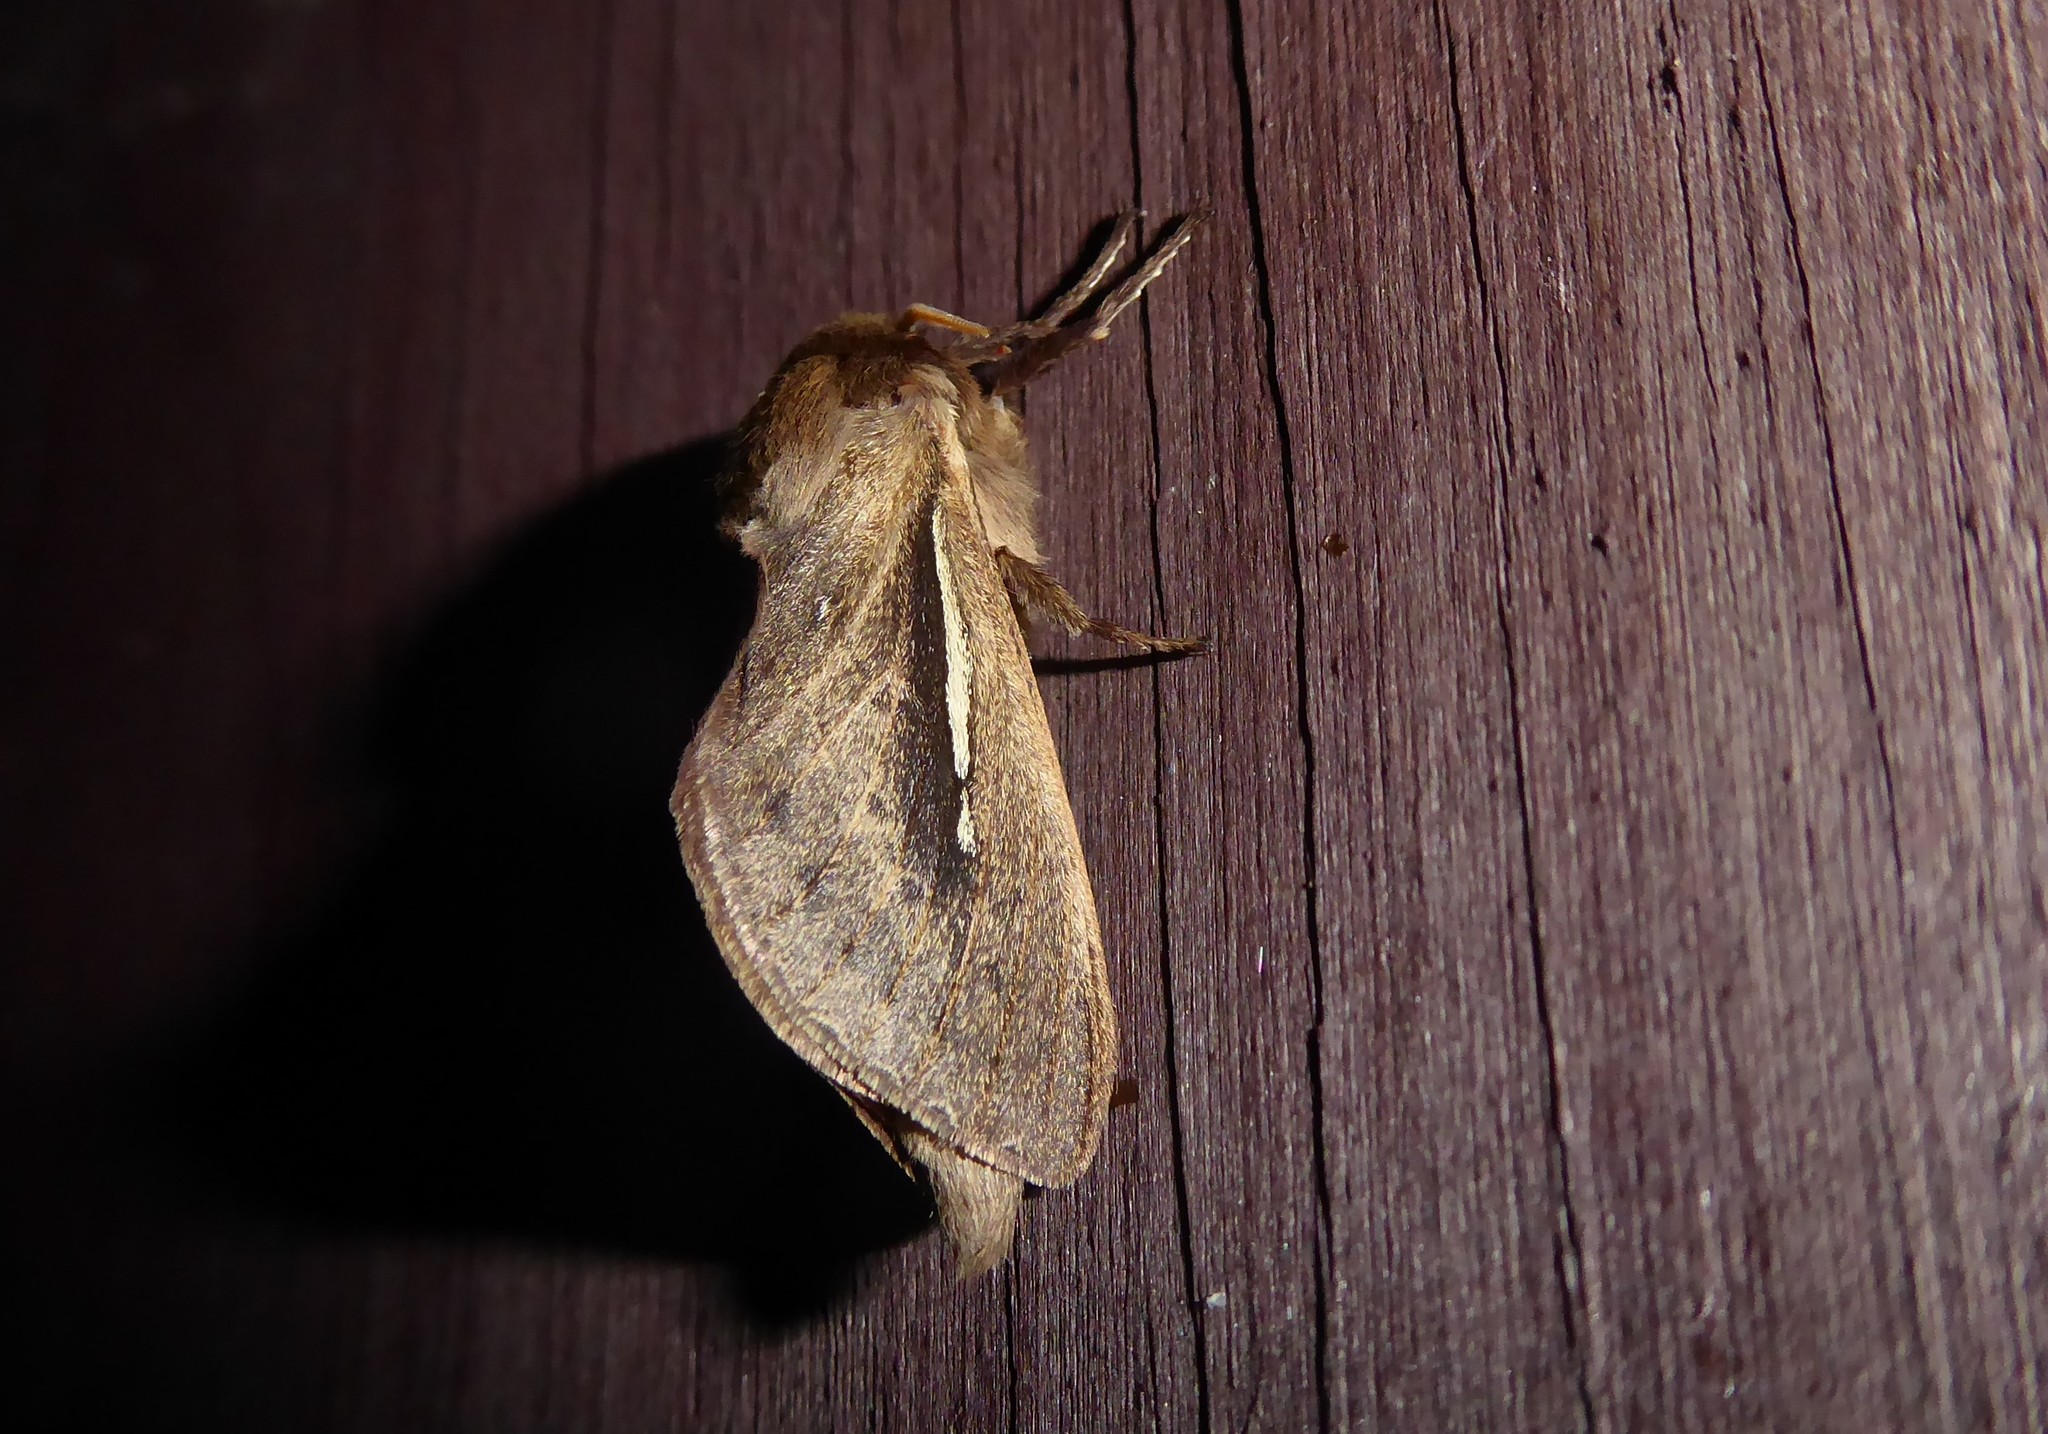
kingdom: Animalia
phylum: Arthropoda
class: Insecta
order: Lepidoptera
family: Hepialidae
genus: Wiseana
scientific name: Wiseana umbraculatus
